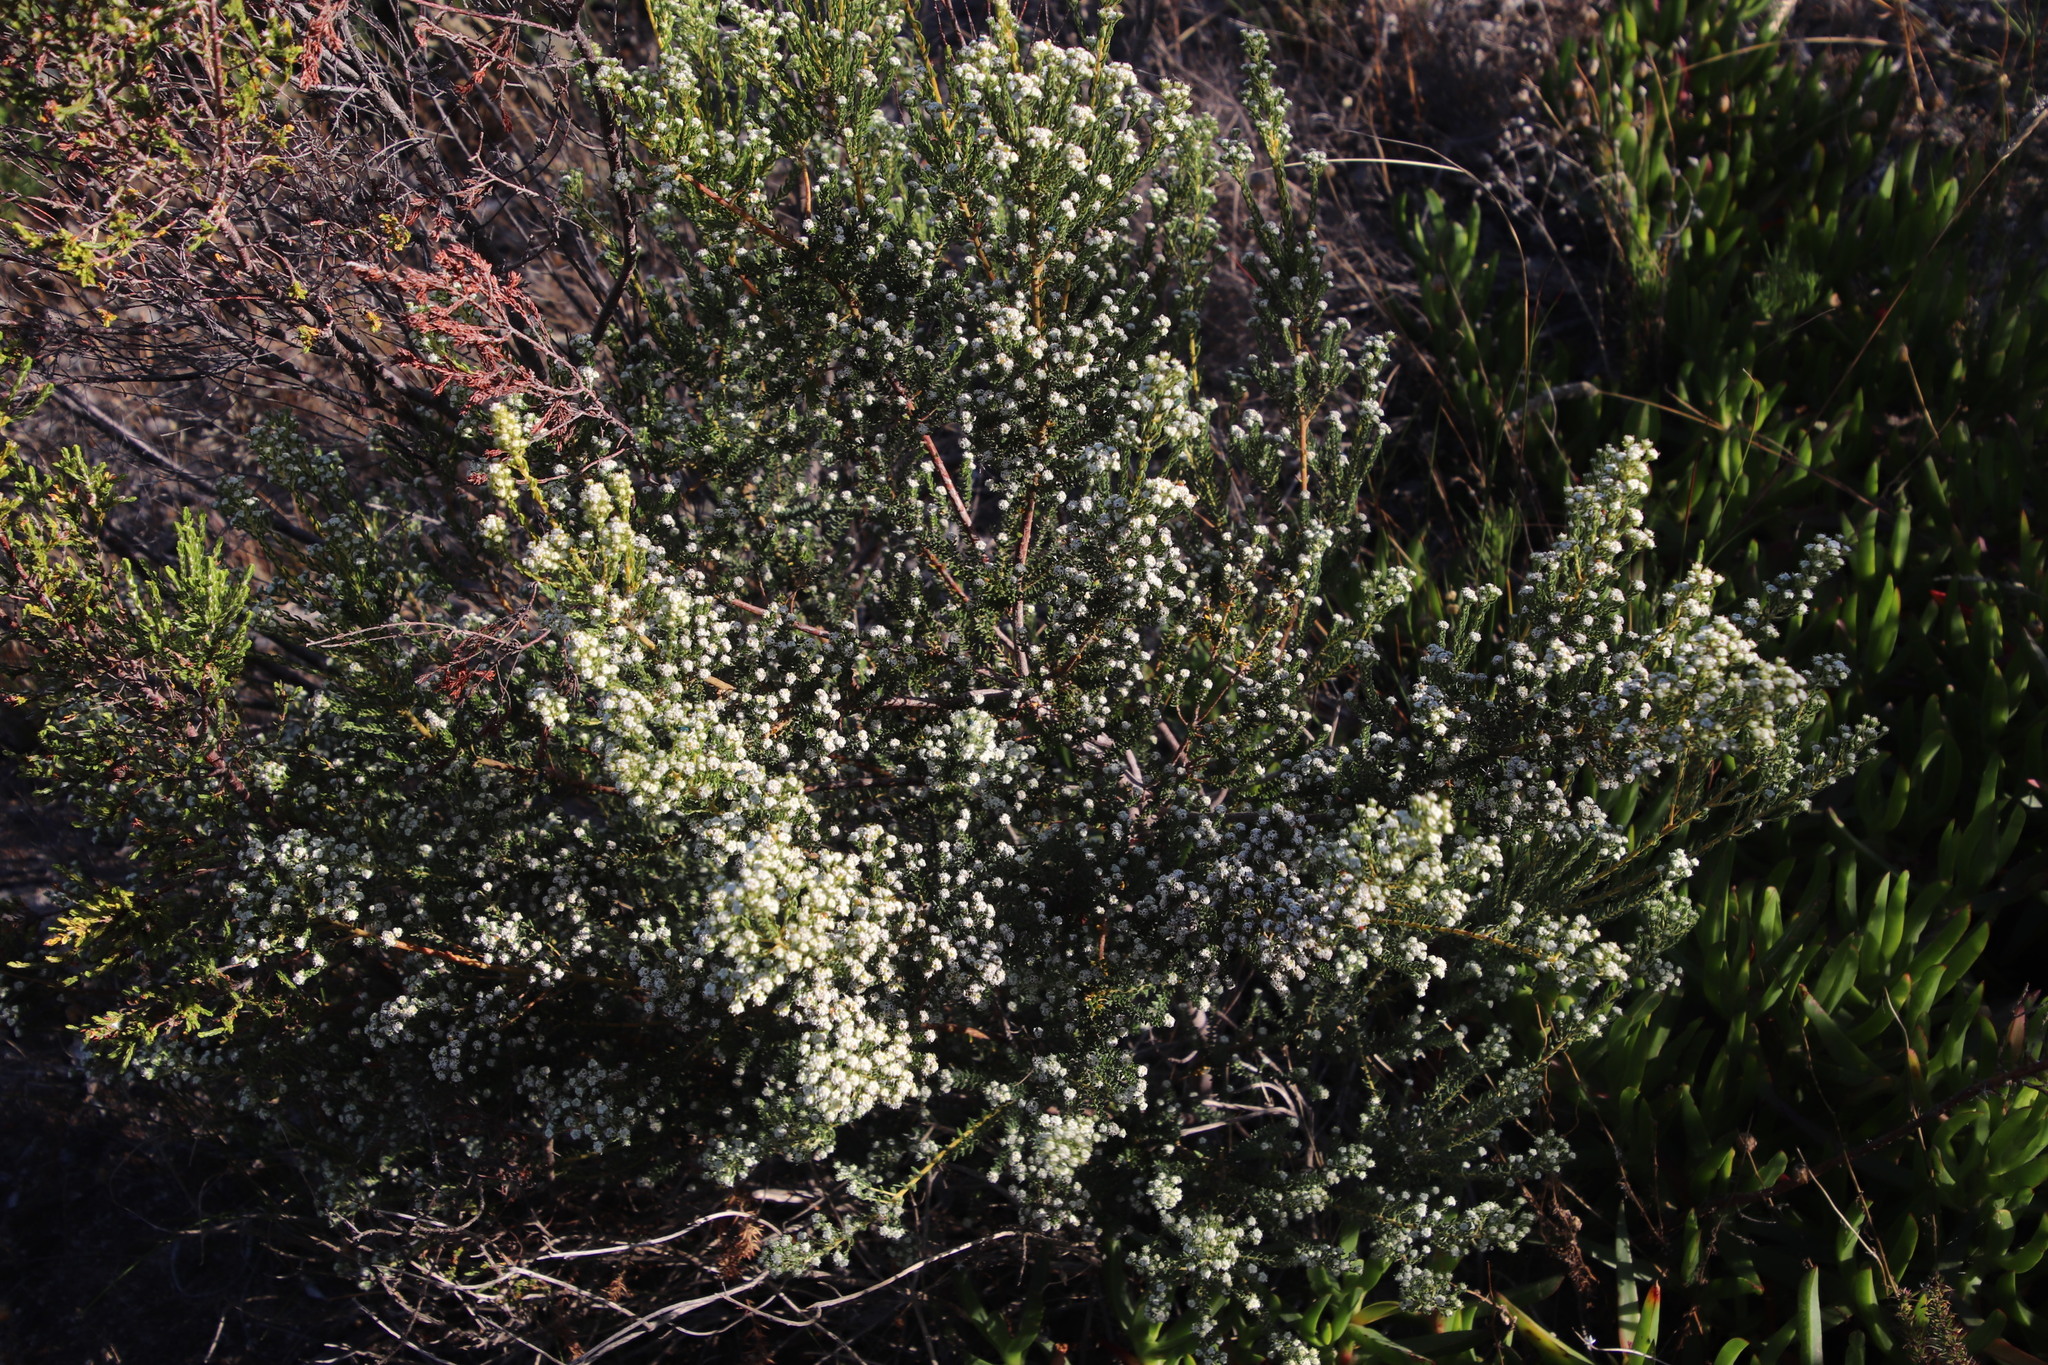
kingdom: Plantae
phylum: Tracheophyta
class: Magnoliopsida
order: Rosales
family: Rhamnaceae
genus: Phylica
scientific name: Phylica parviflora
